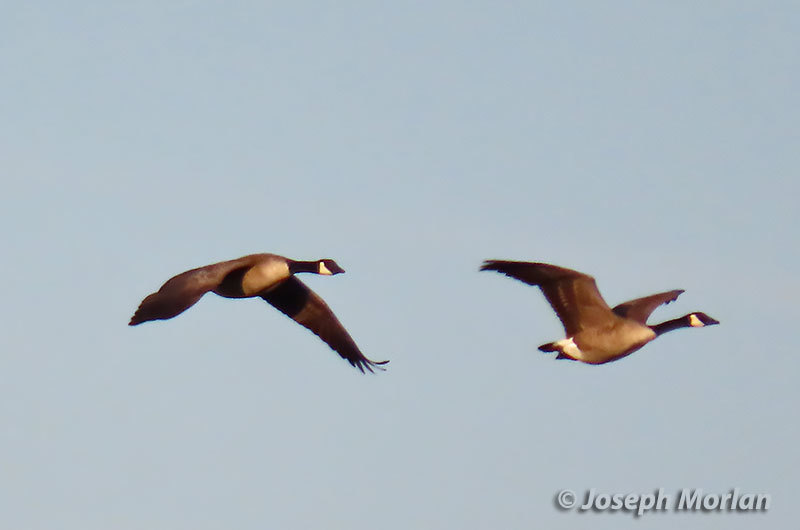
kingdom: Animalia
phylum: Chordata
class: Aves
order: Anseriformes
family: Anatidae
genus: Branta
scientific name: Branta canadensis
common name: Canada goose
